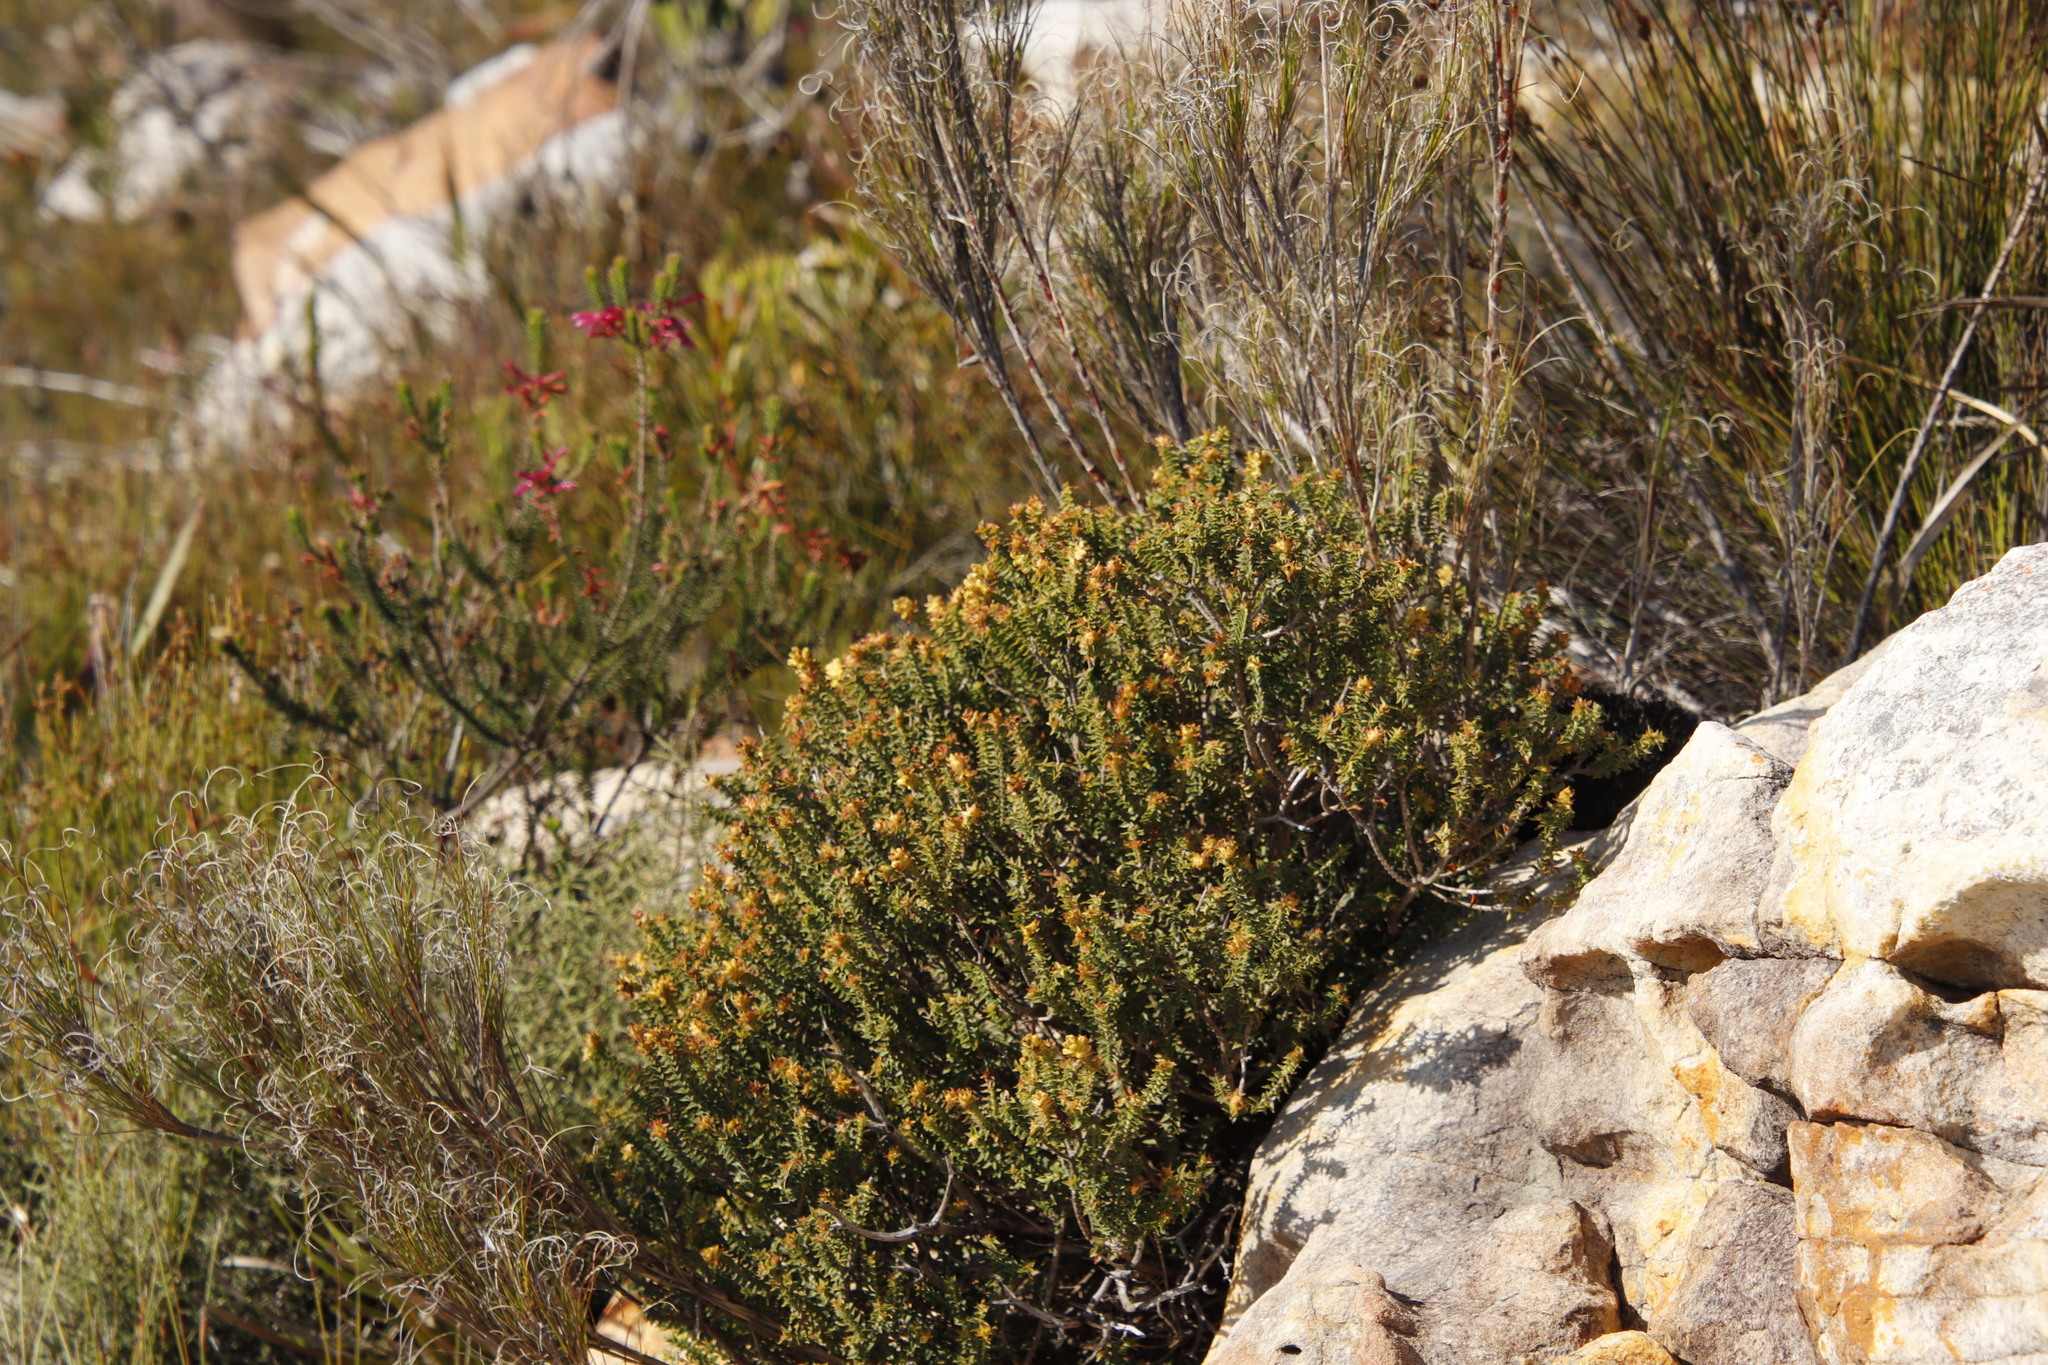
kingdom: Plantae
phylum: Tracheophyta
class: Magnoliopsida
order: Myrtales
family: Penaeaceae
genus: Penaea
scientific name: Penaea mucronata
